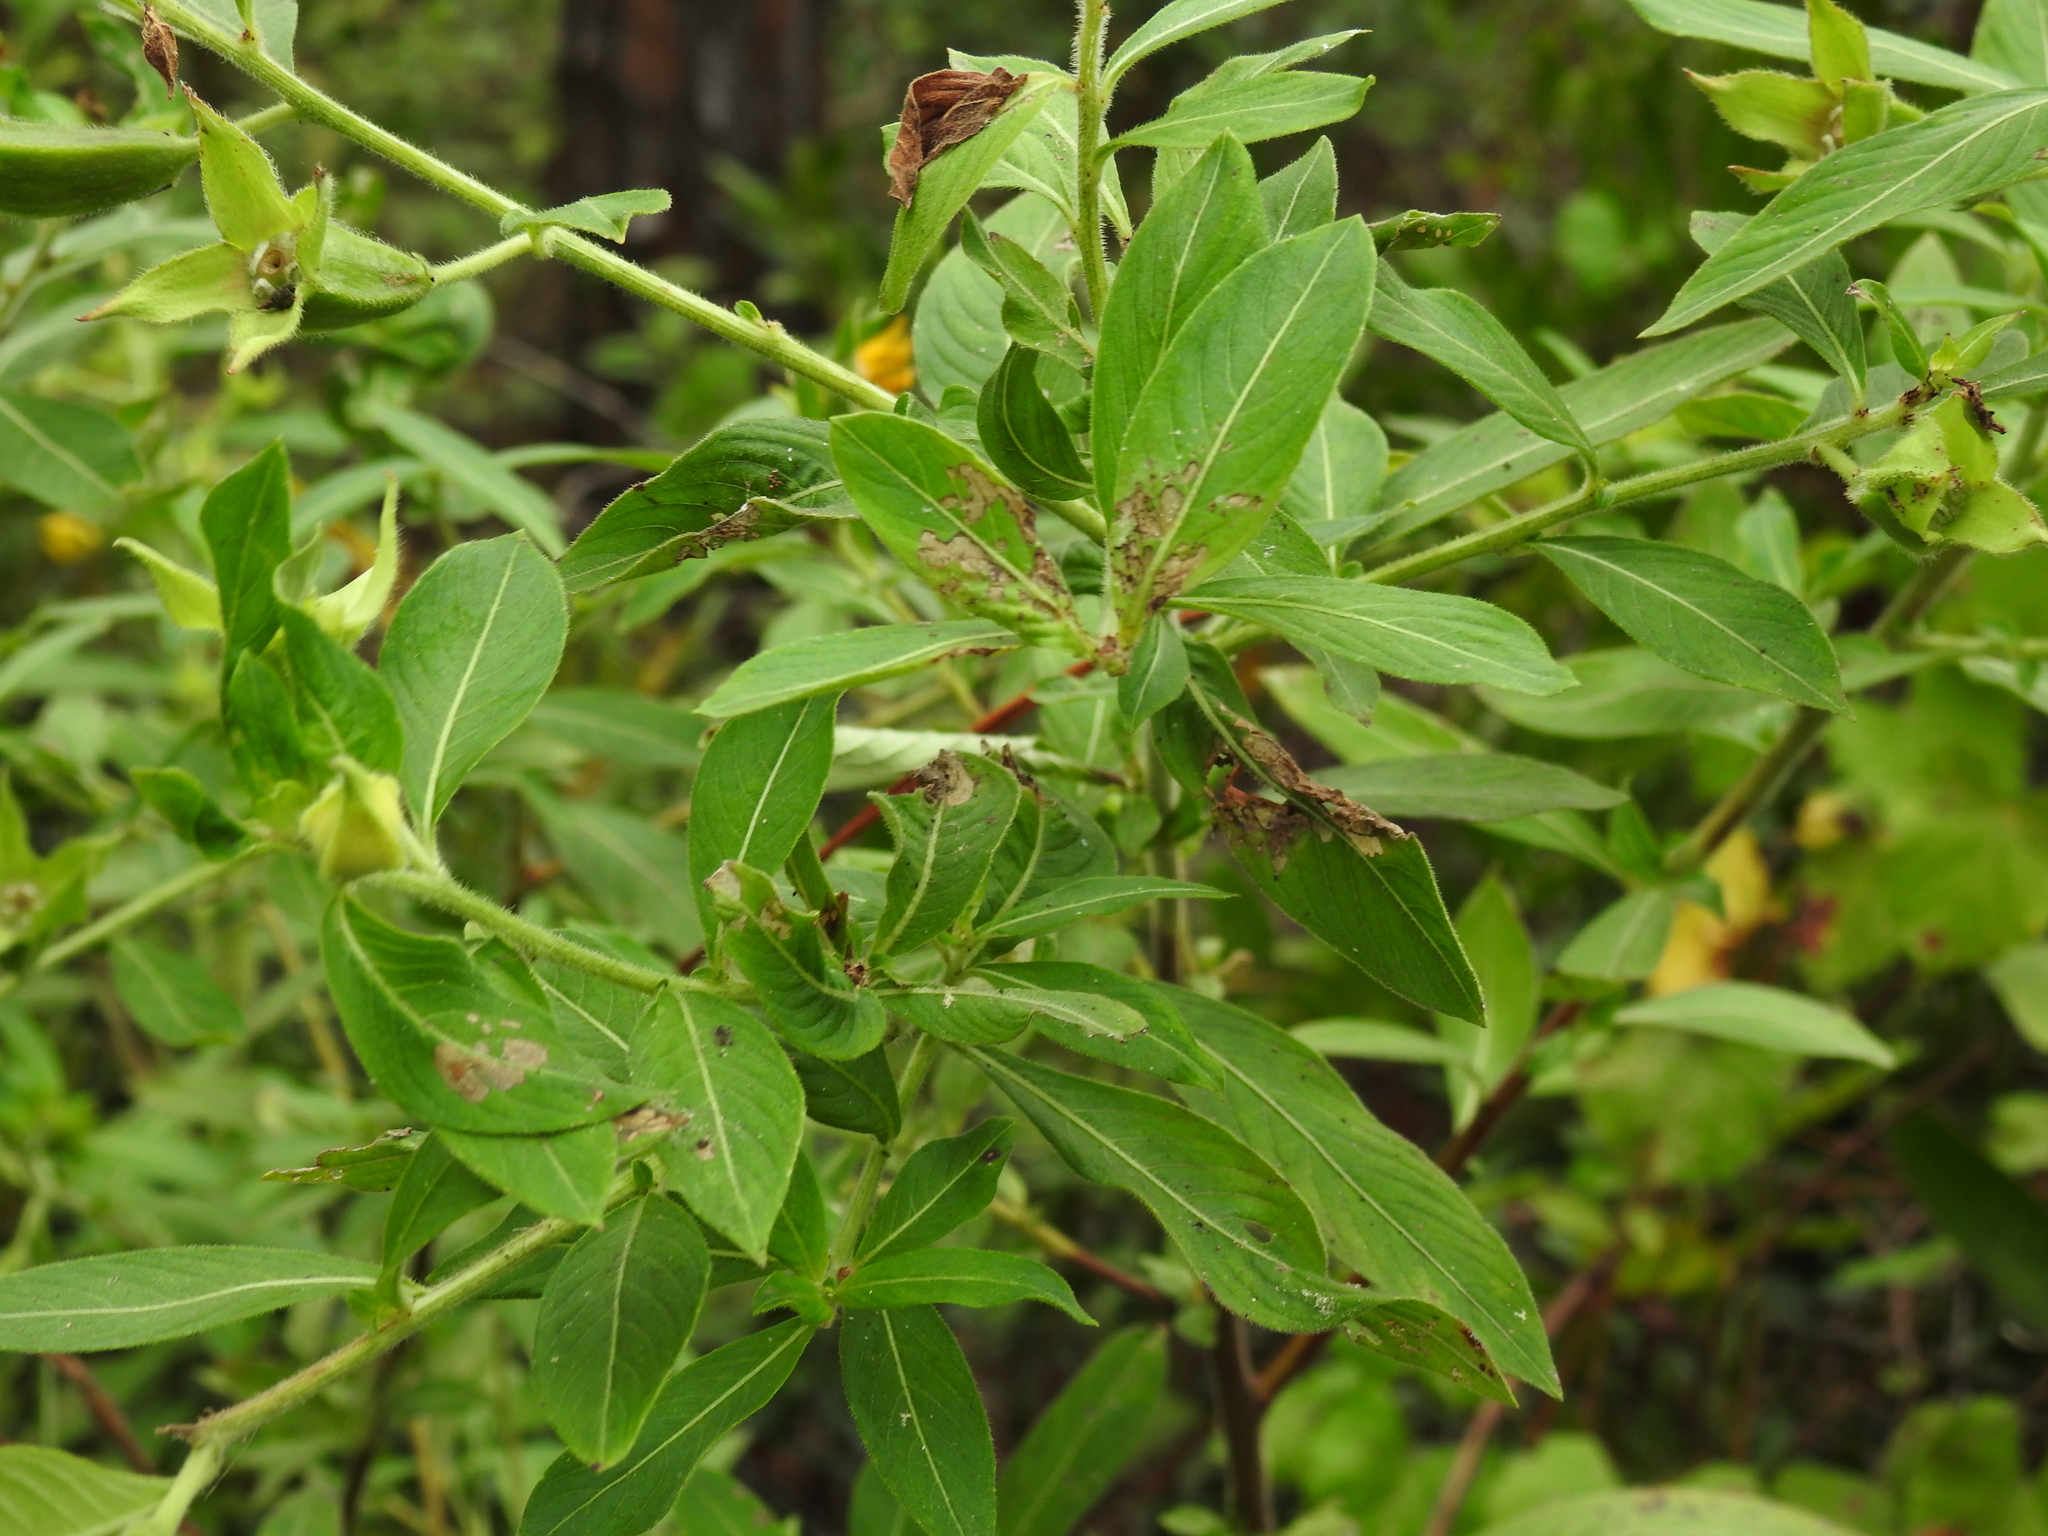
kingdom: Plantae
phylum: Tracheophyta
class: Magnoliopsida
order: Myrtales
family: Onagraceae
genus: Ludwigia
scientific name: Ludwigia peruviana
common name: Peruvian primrose-willow
